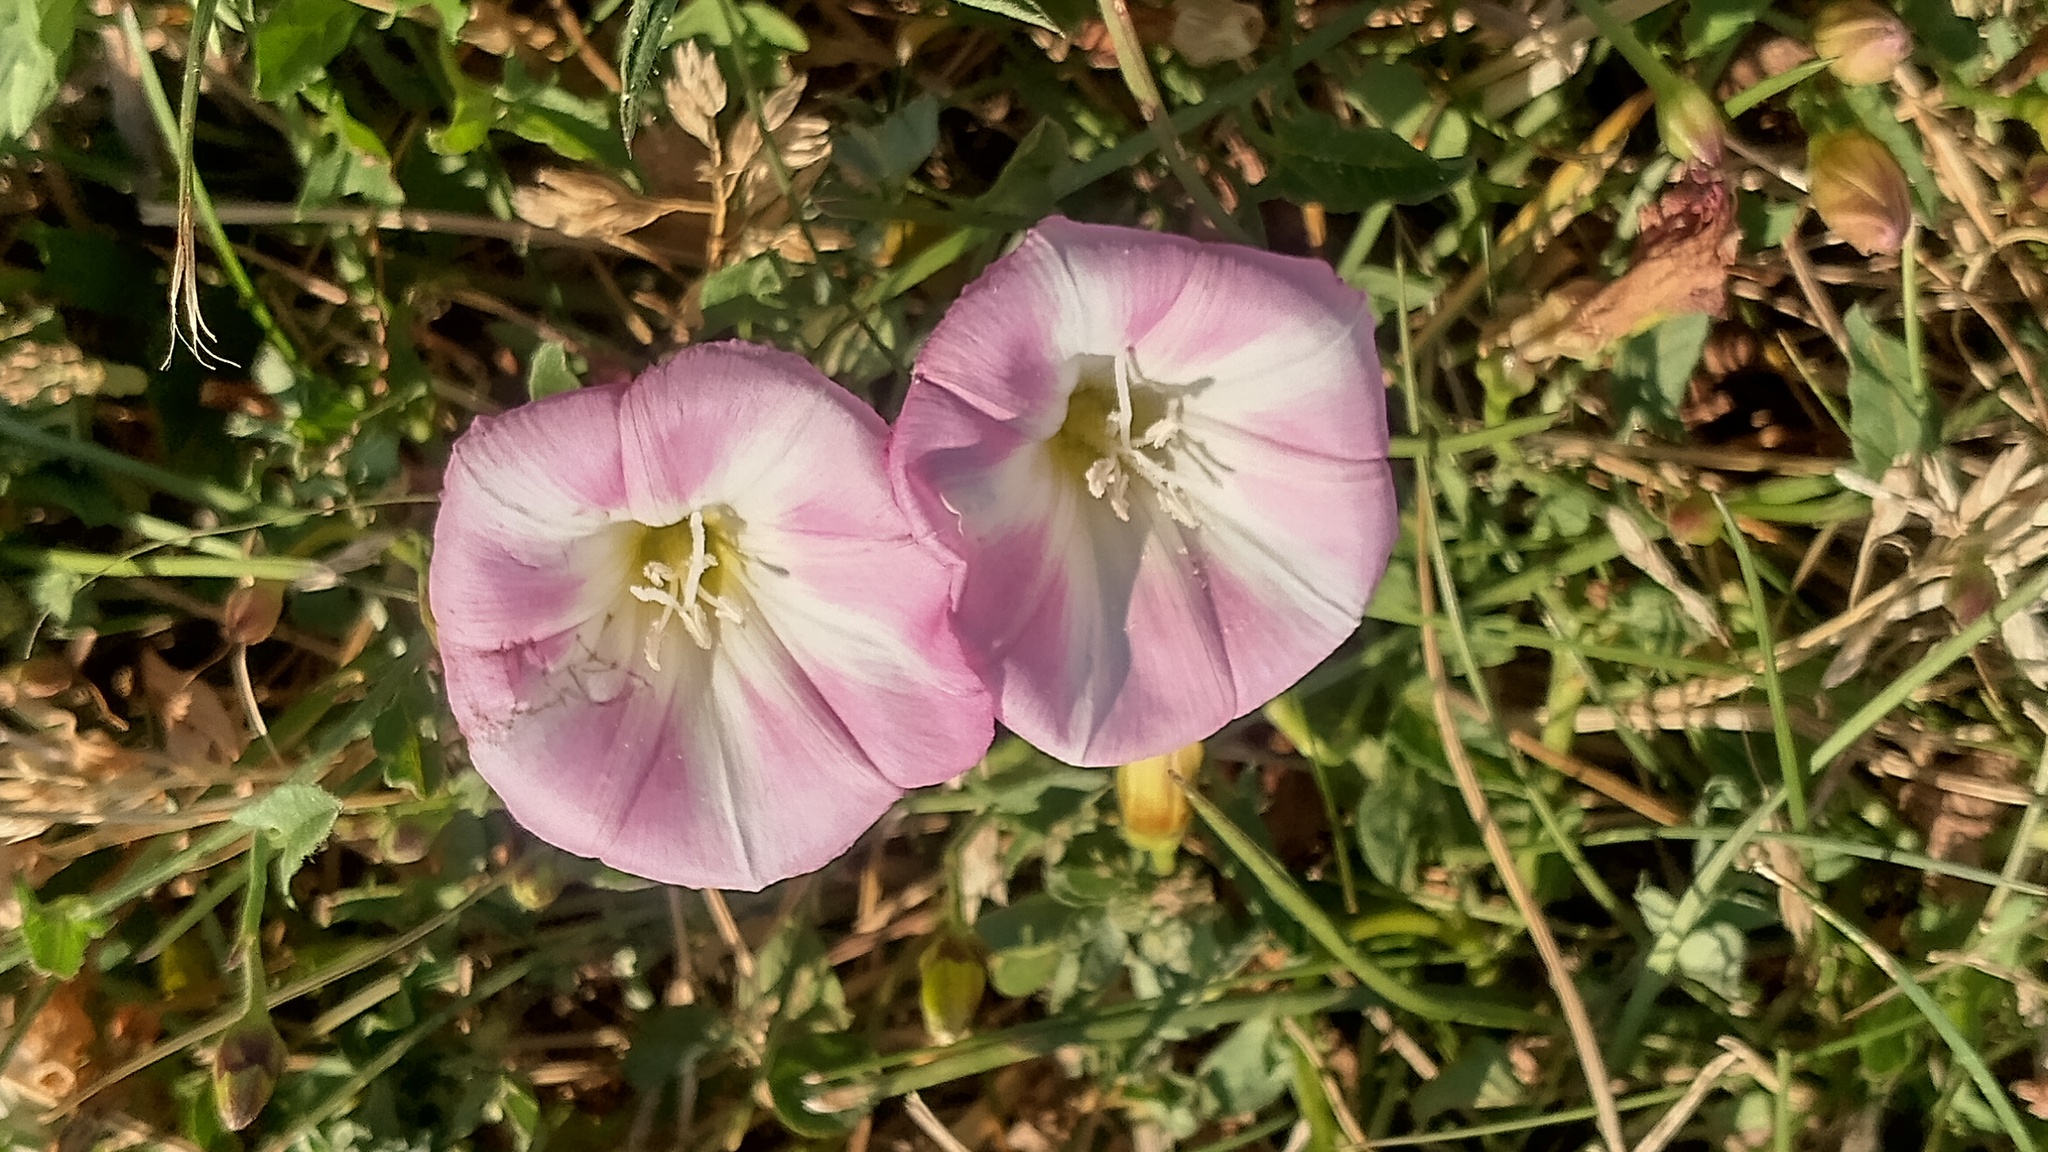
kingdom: Plantae
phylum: Tracheophyta
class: Magnoliopsida
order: Solanales
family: Convolvulaceae
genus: Convolvulus
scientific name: Convolvulus arvensis
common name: Field bindweed
